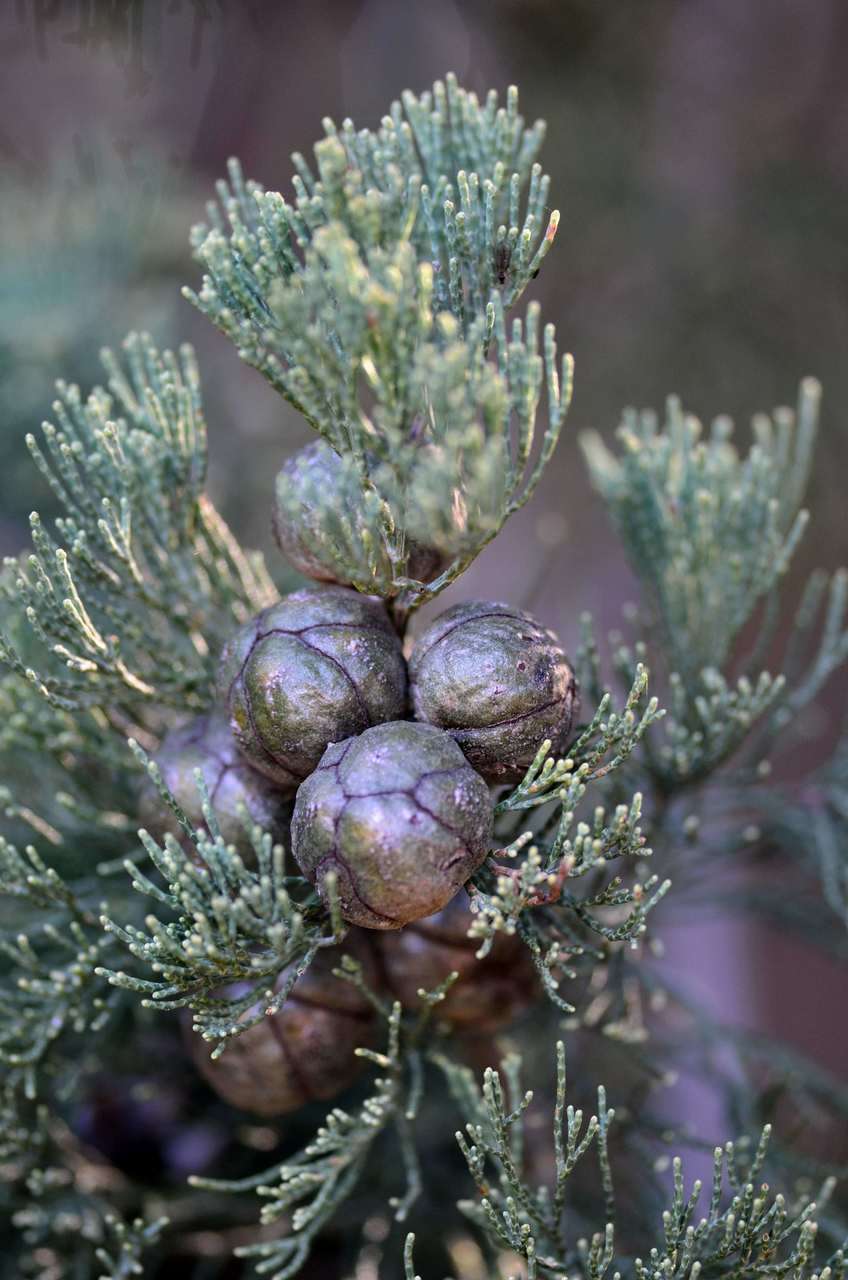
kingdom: Plantae
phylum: Tracheophyta
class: Pinopsida
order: Pinales
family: Cupressaceae
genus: Callitris
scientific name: Callitris columellaris
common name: White cypress-pine
